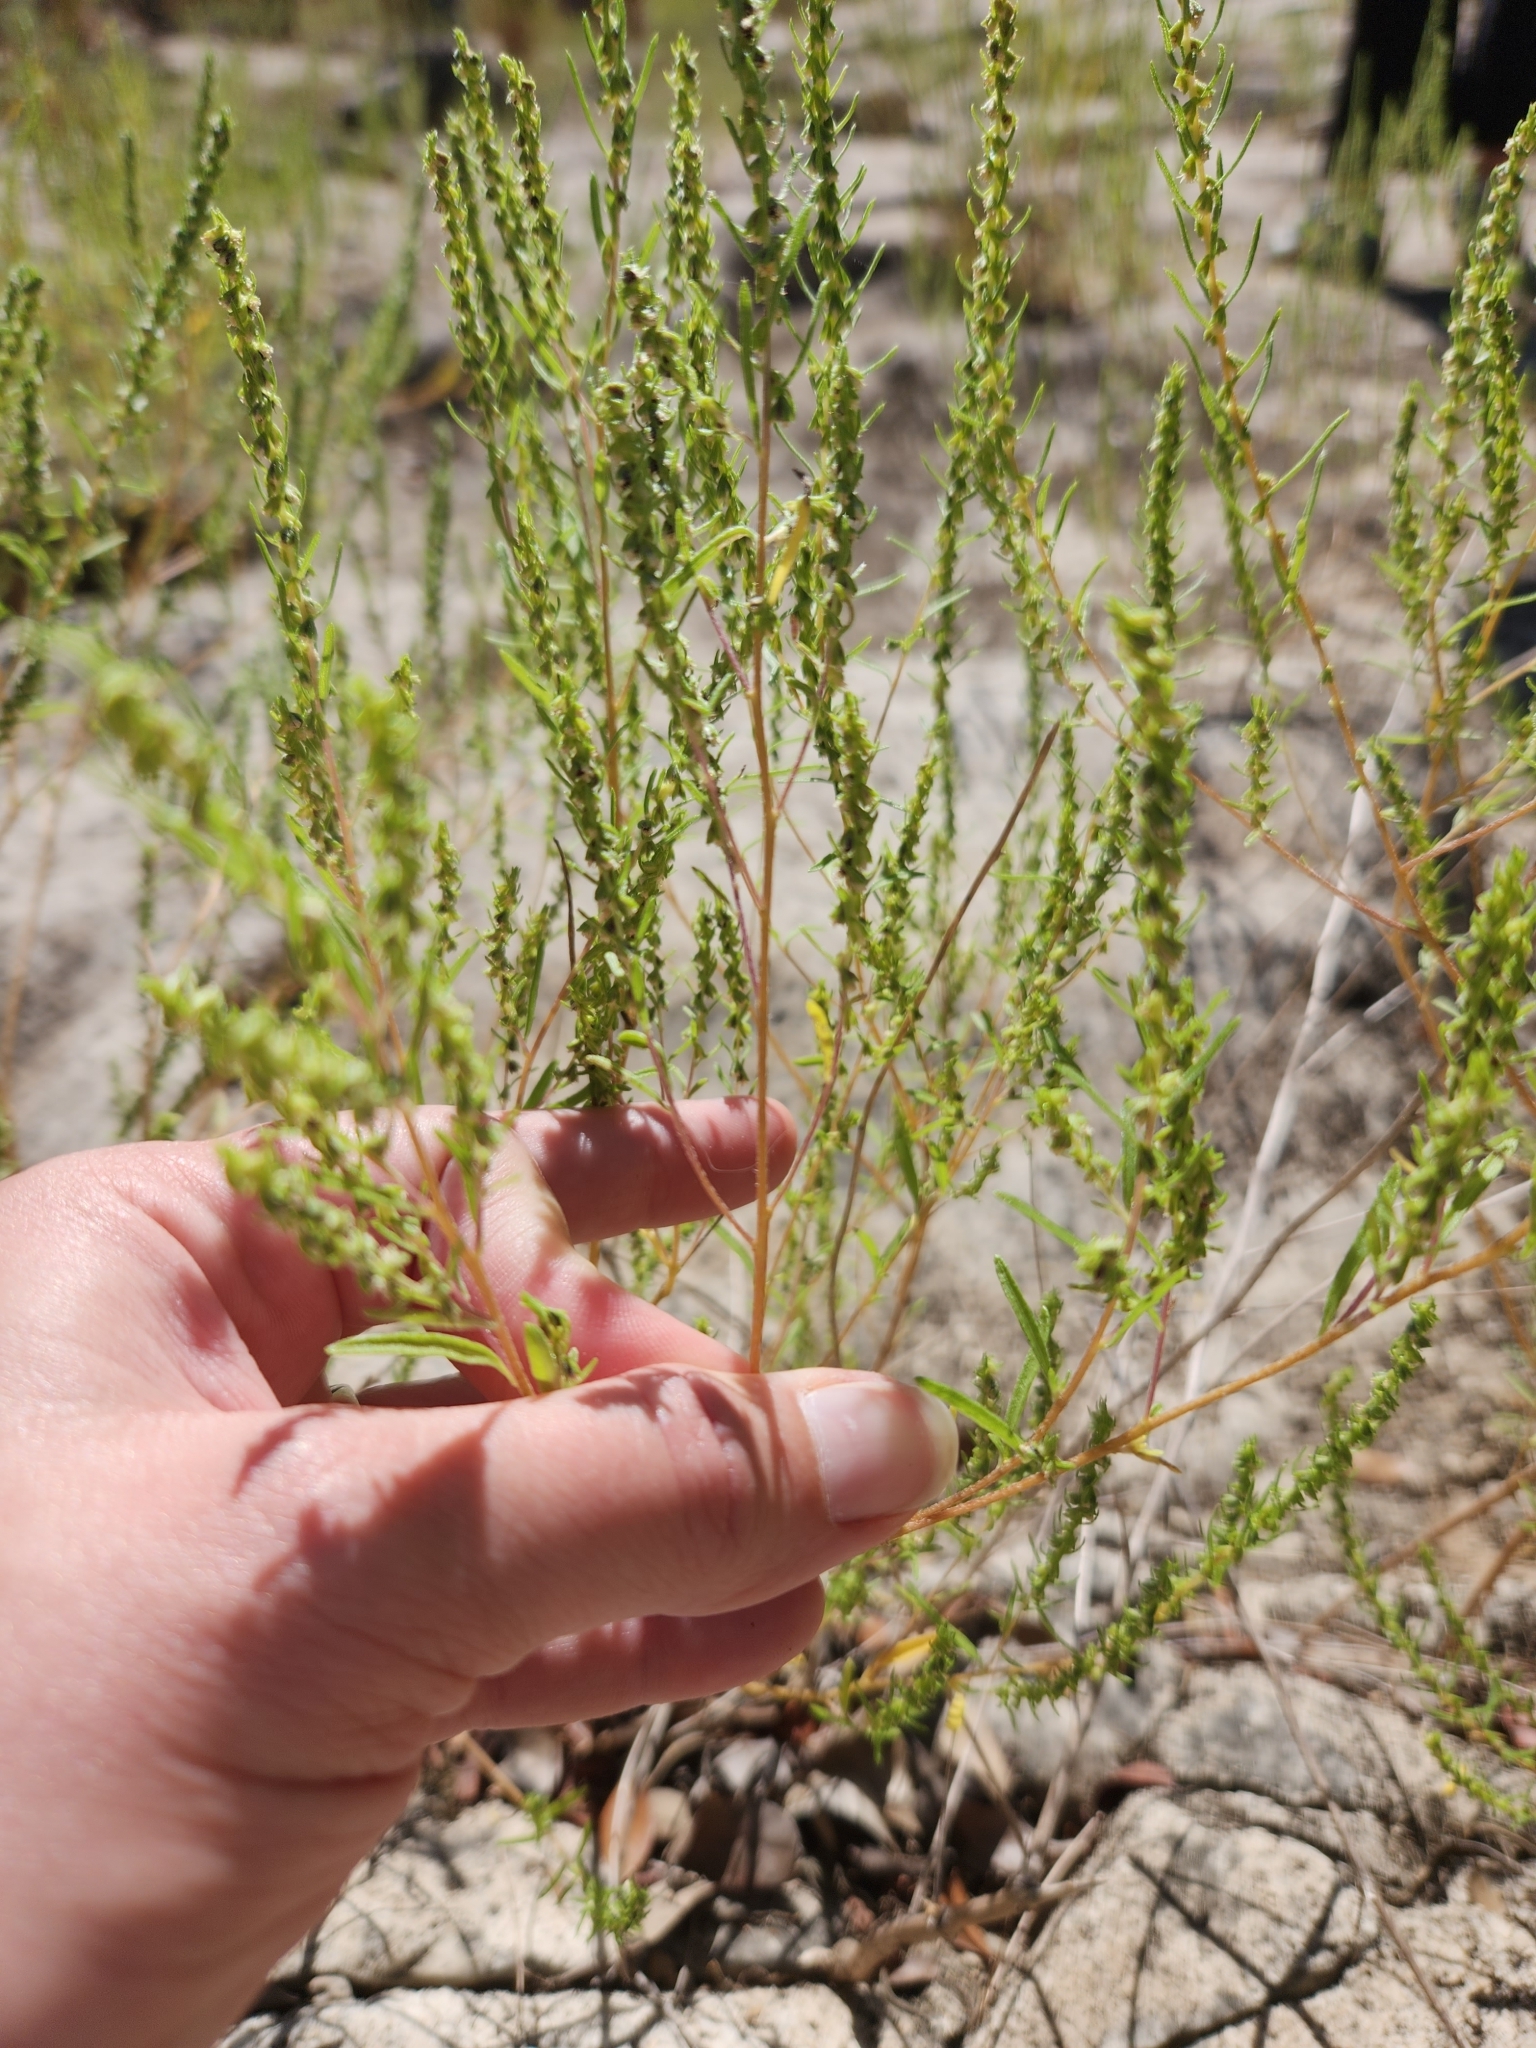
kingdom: Plantae
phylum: Tracheophyta
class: Magnoliopsida
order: Asterales
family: Asteraceae
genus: Iva
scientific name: Iva asperifolia
